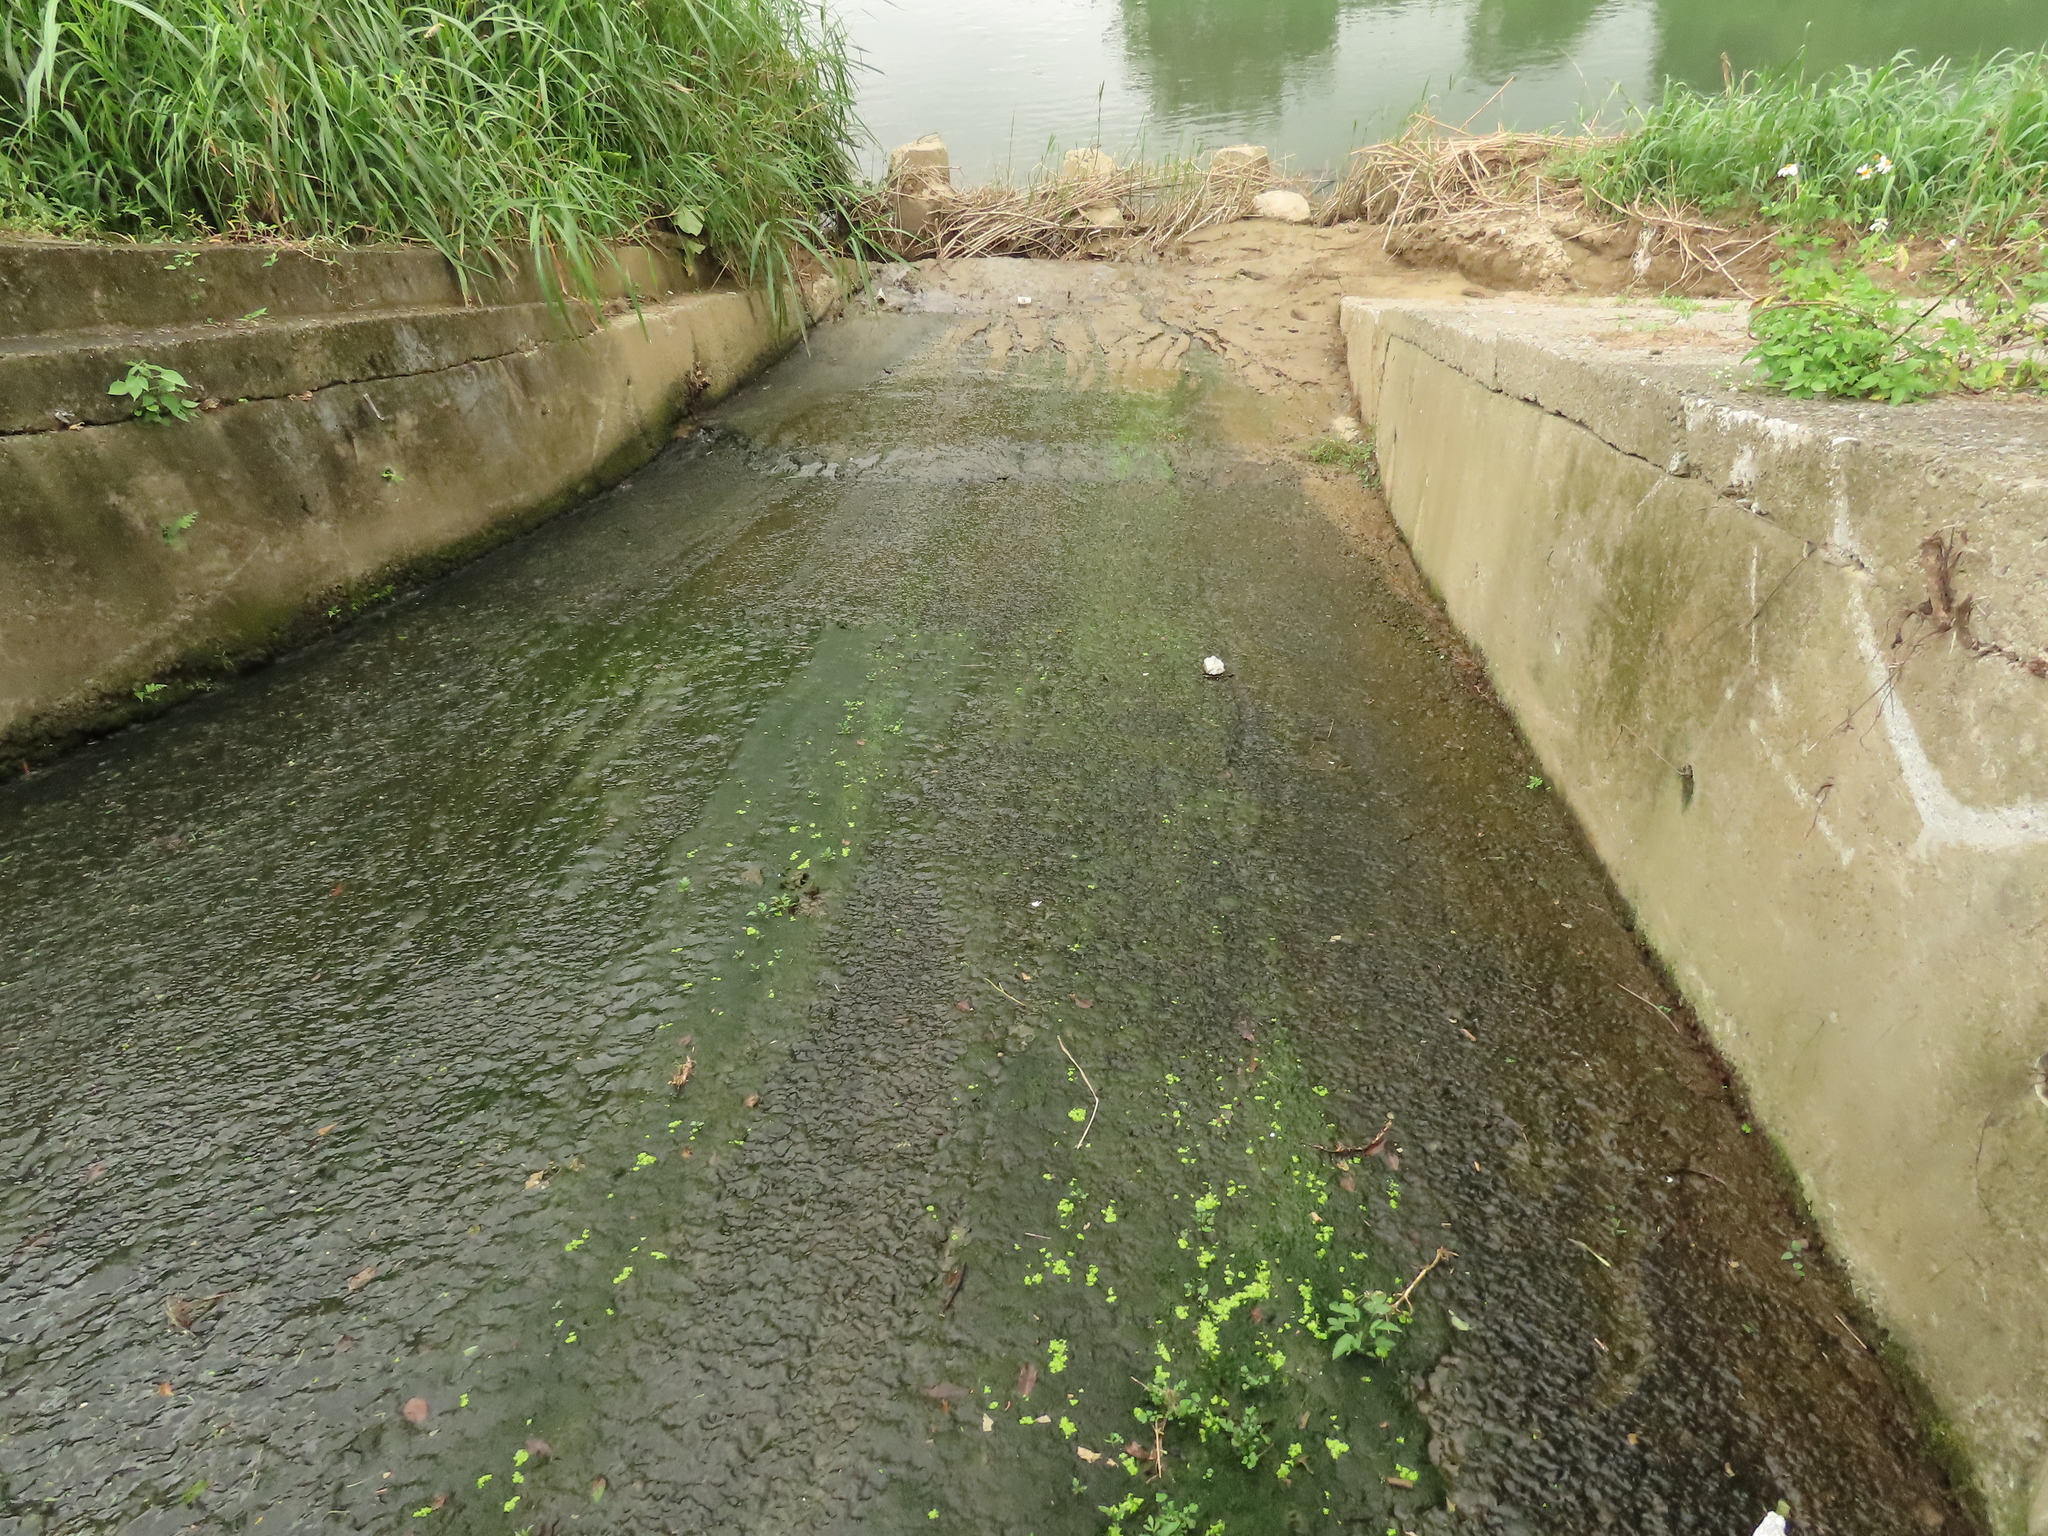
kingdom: Plantae
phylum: Tracheophyta
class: Liliopsida
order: Alismatales
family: Araceae
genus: Lemna
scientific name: Lemna aequinoctialis
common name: Duckweed
